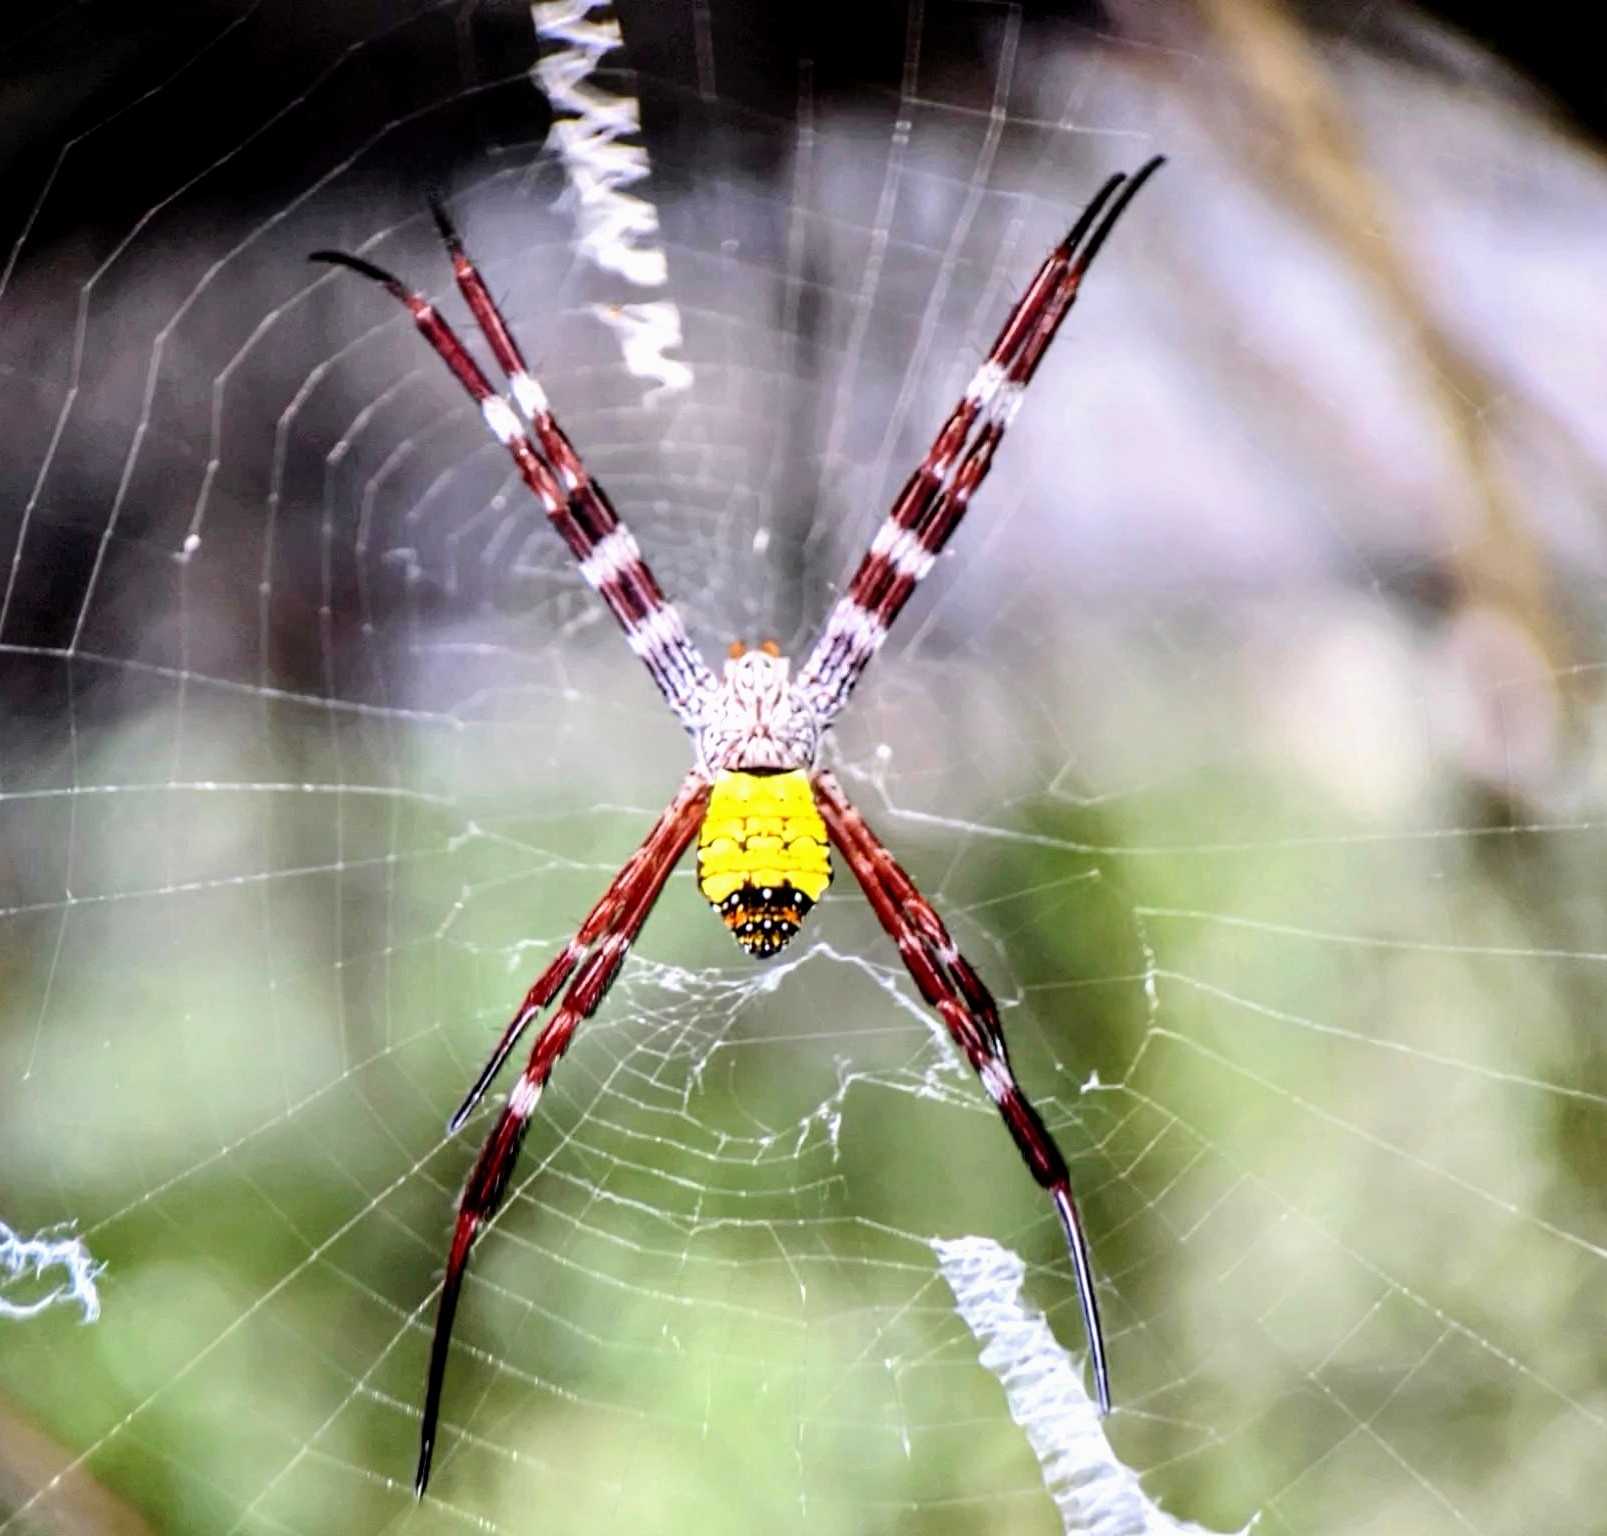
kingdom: Animalia
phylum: Arthropoda
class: Arachnida
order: Araneae
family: Araneidae
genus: Argiope
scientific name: Argiope mangal
